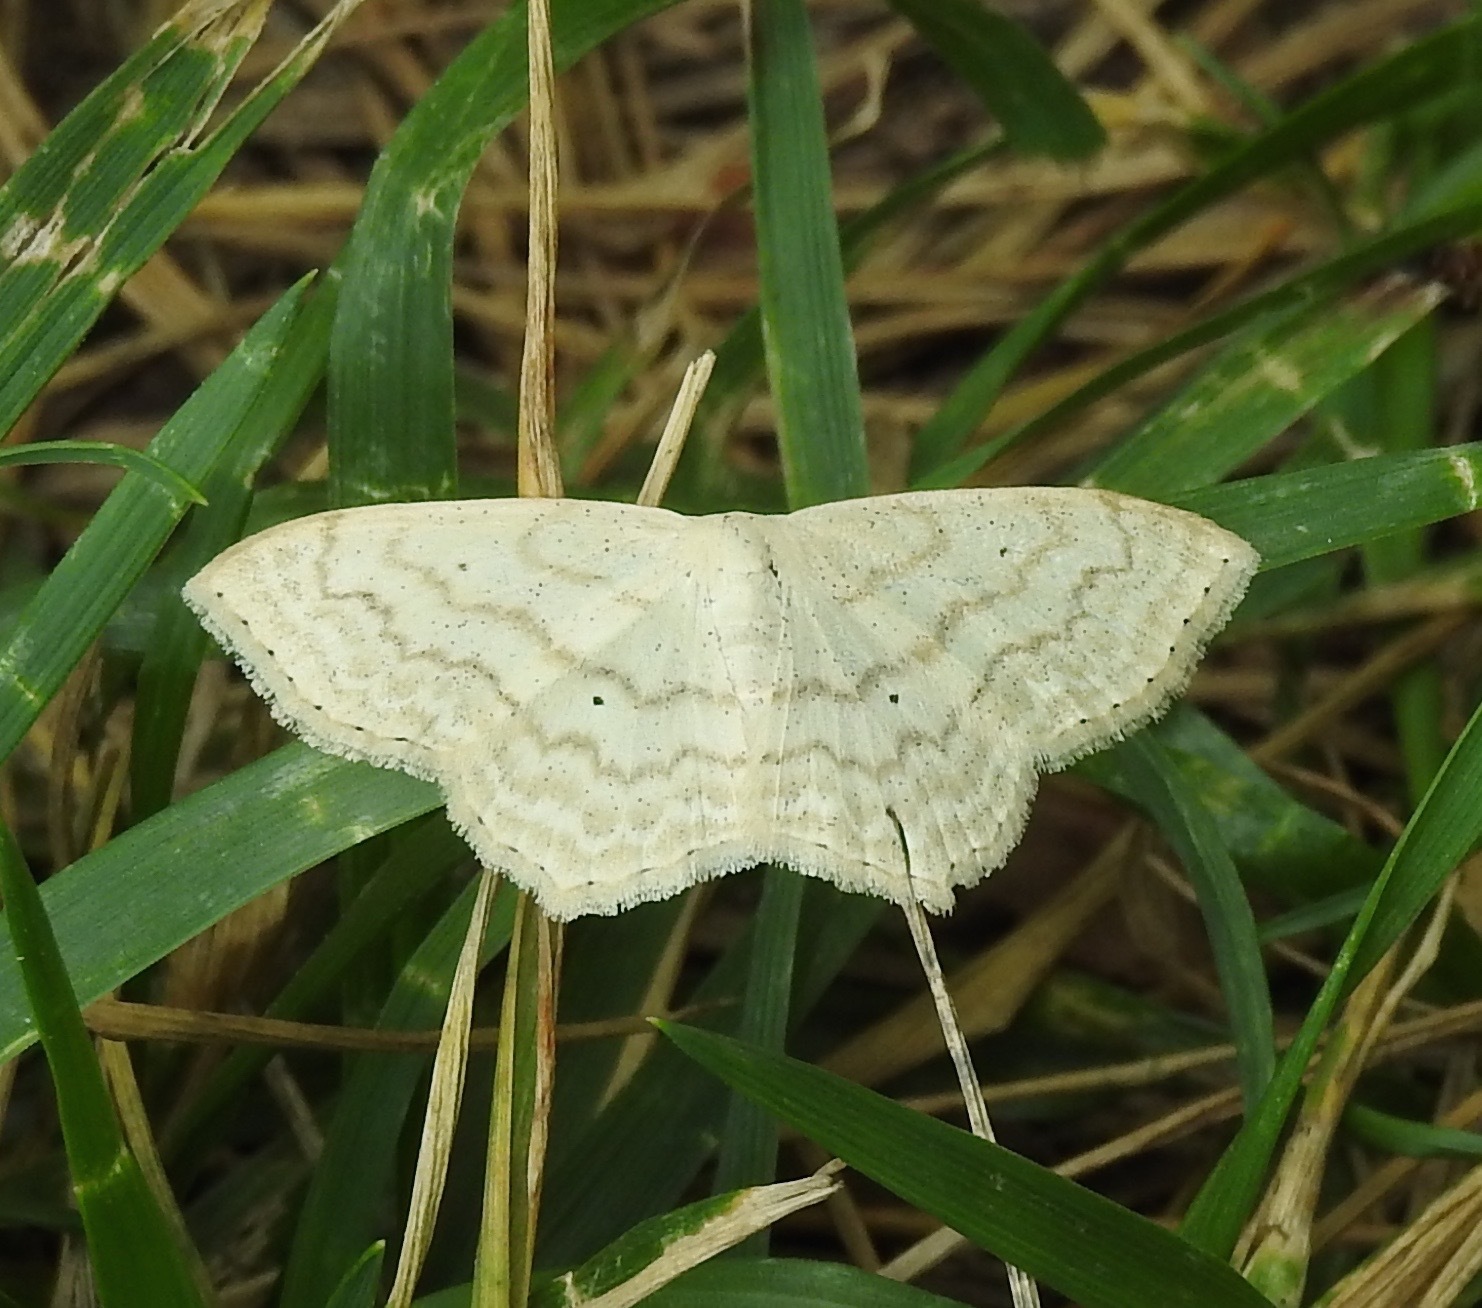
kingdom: Animalia
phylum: Arthropoda
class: Insecta
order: Lepidoptera
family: Geometridae
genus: Scopula
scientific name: Scopula limboundata
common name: Large lace border
